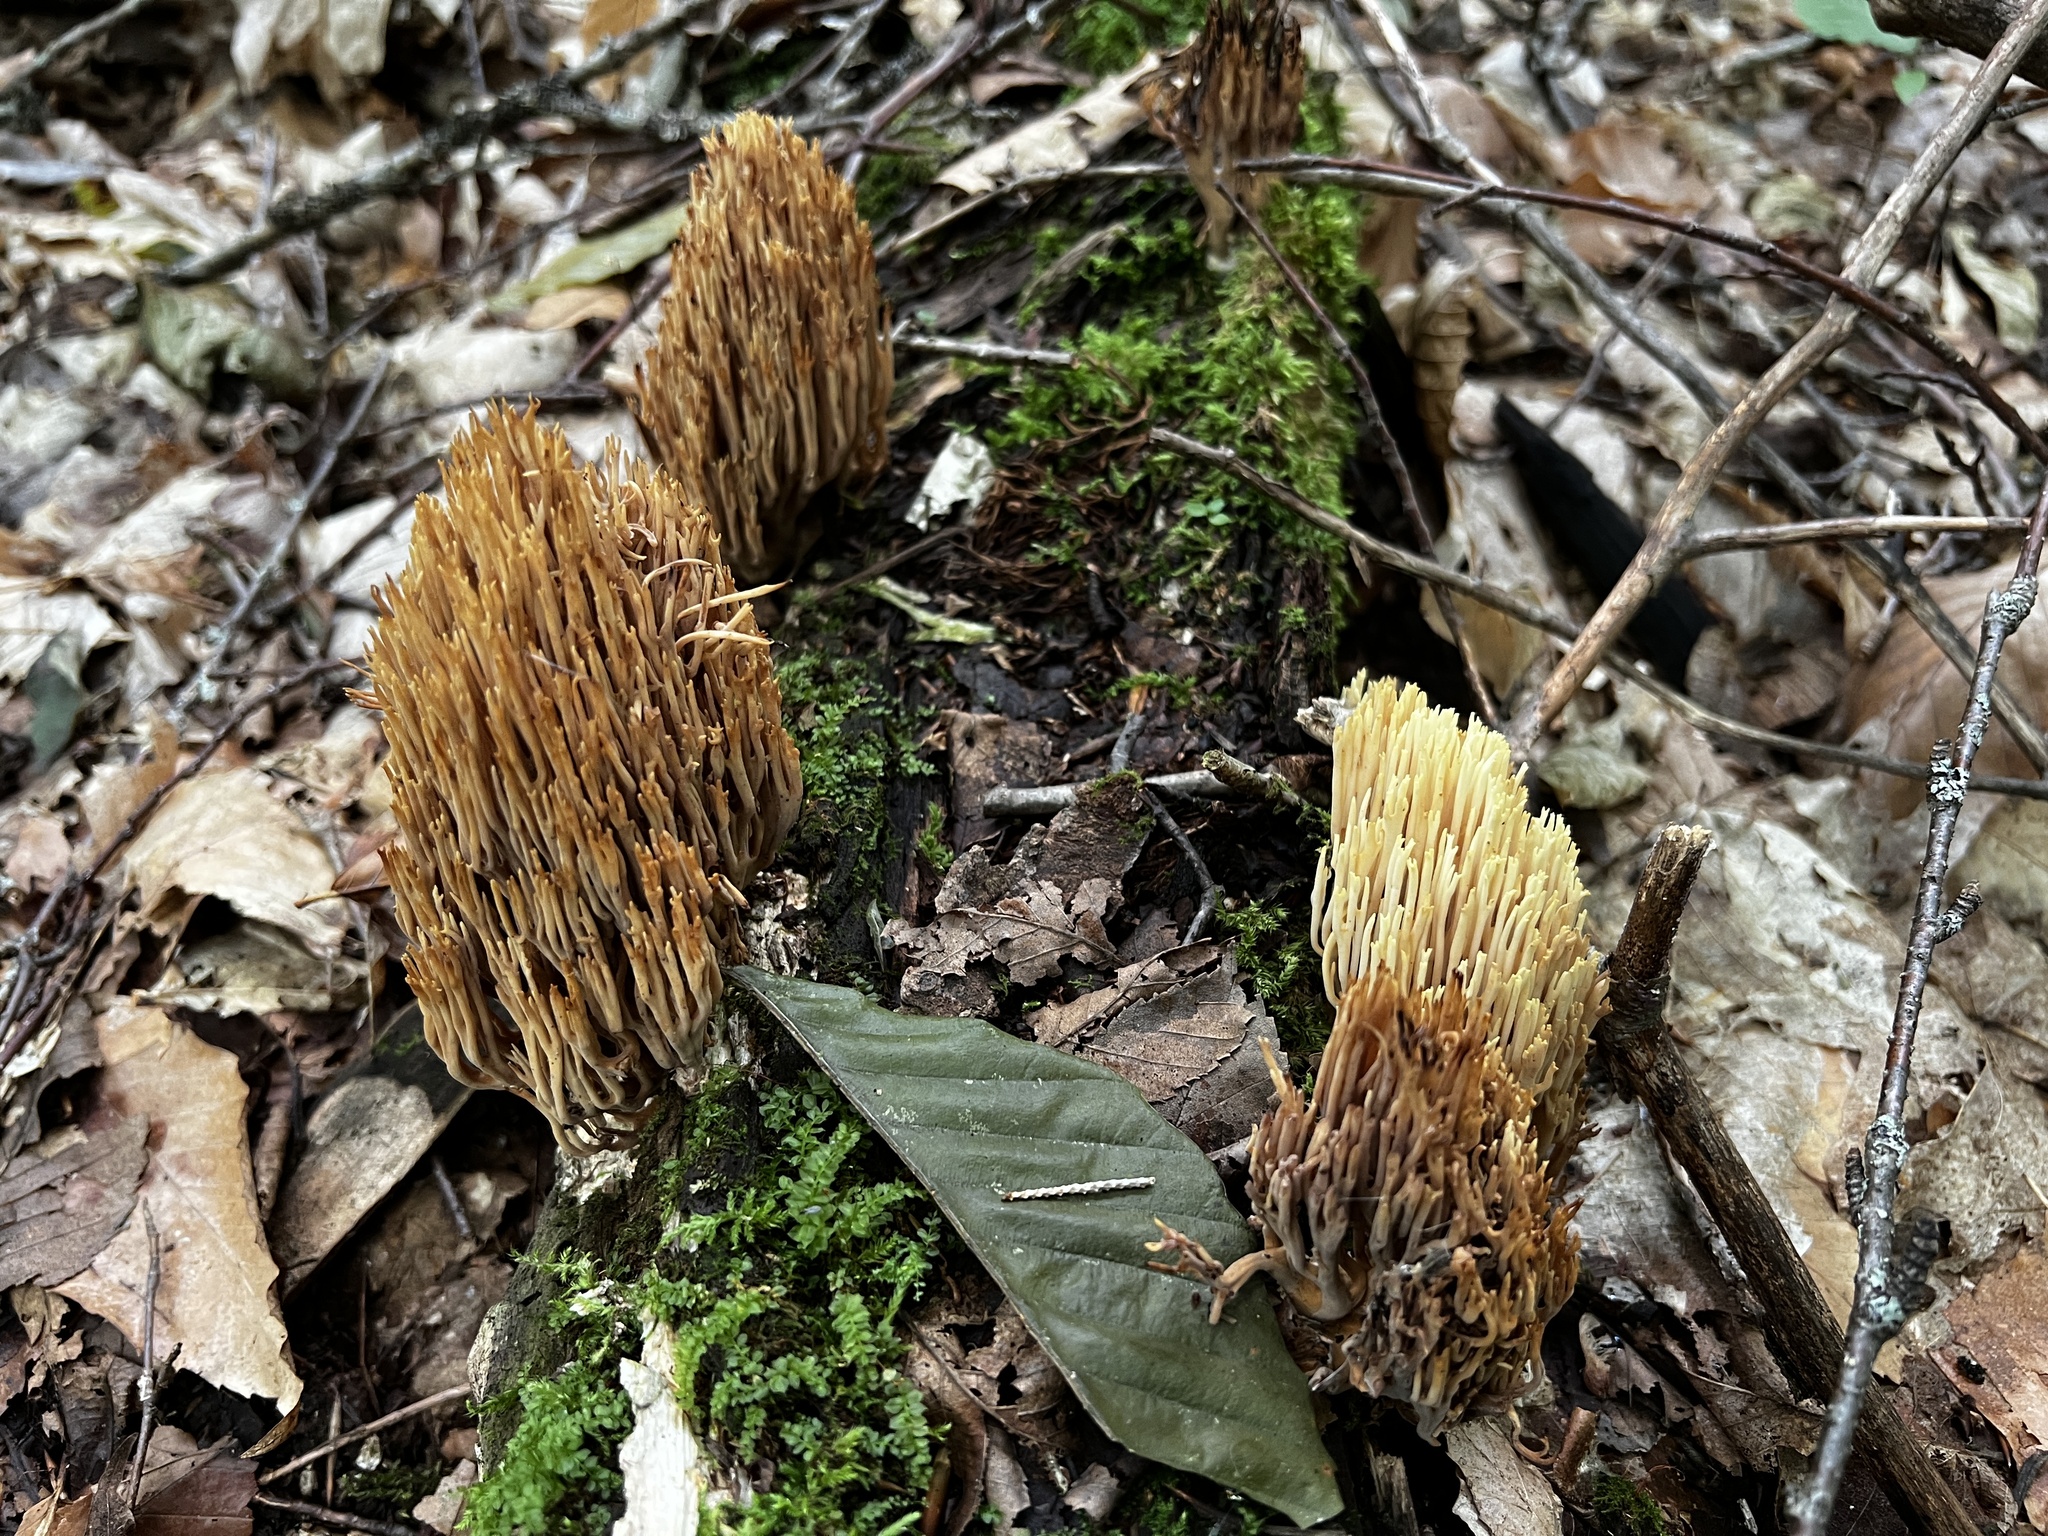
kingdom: Fungi
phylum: Basidiomycota
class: Agaricomycetes
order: Gomphales
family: Gomphaceae
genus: Ramaria
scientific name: Ramaria stricta
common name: Upright coral
